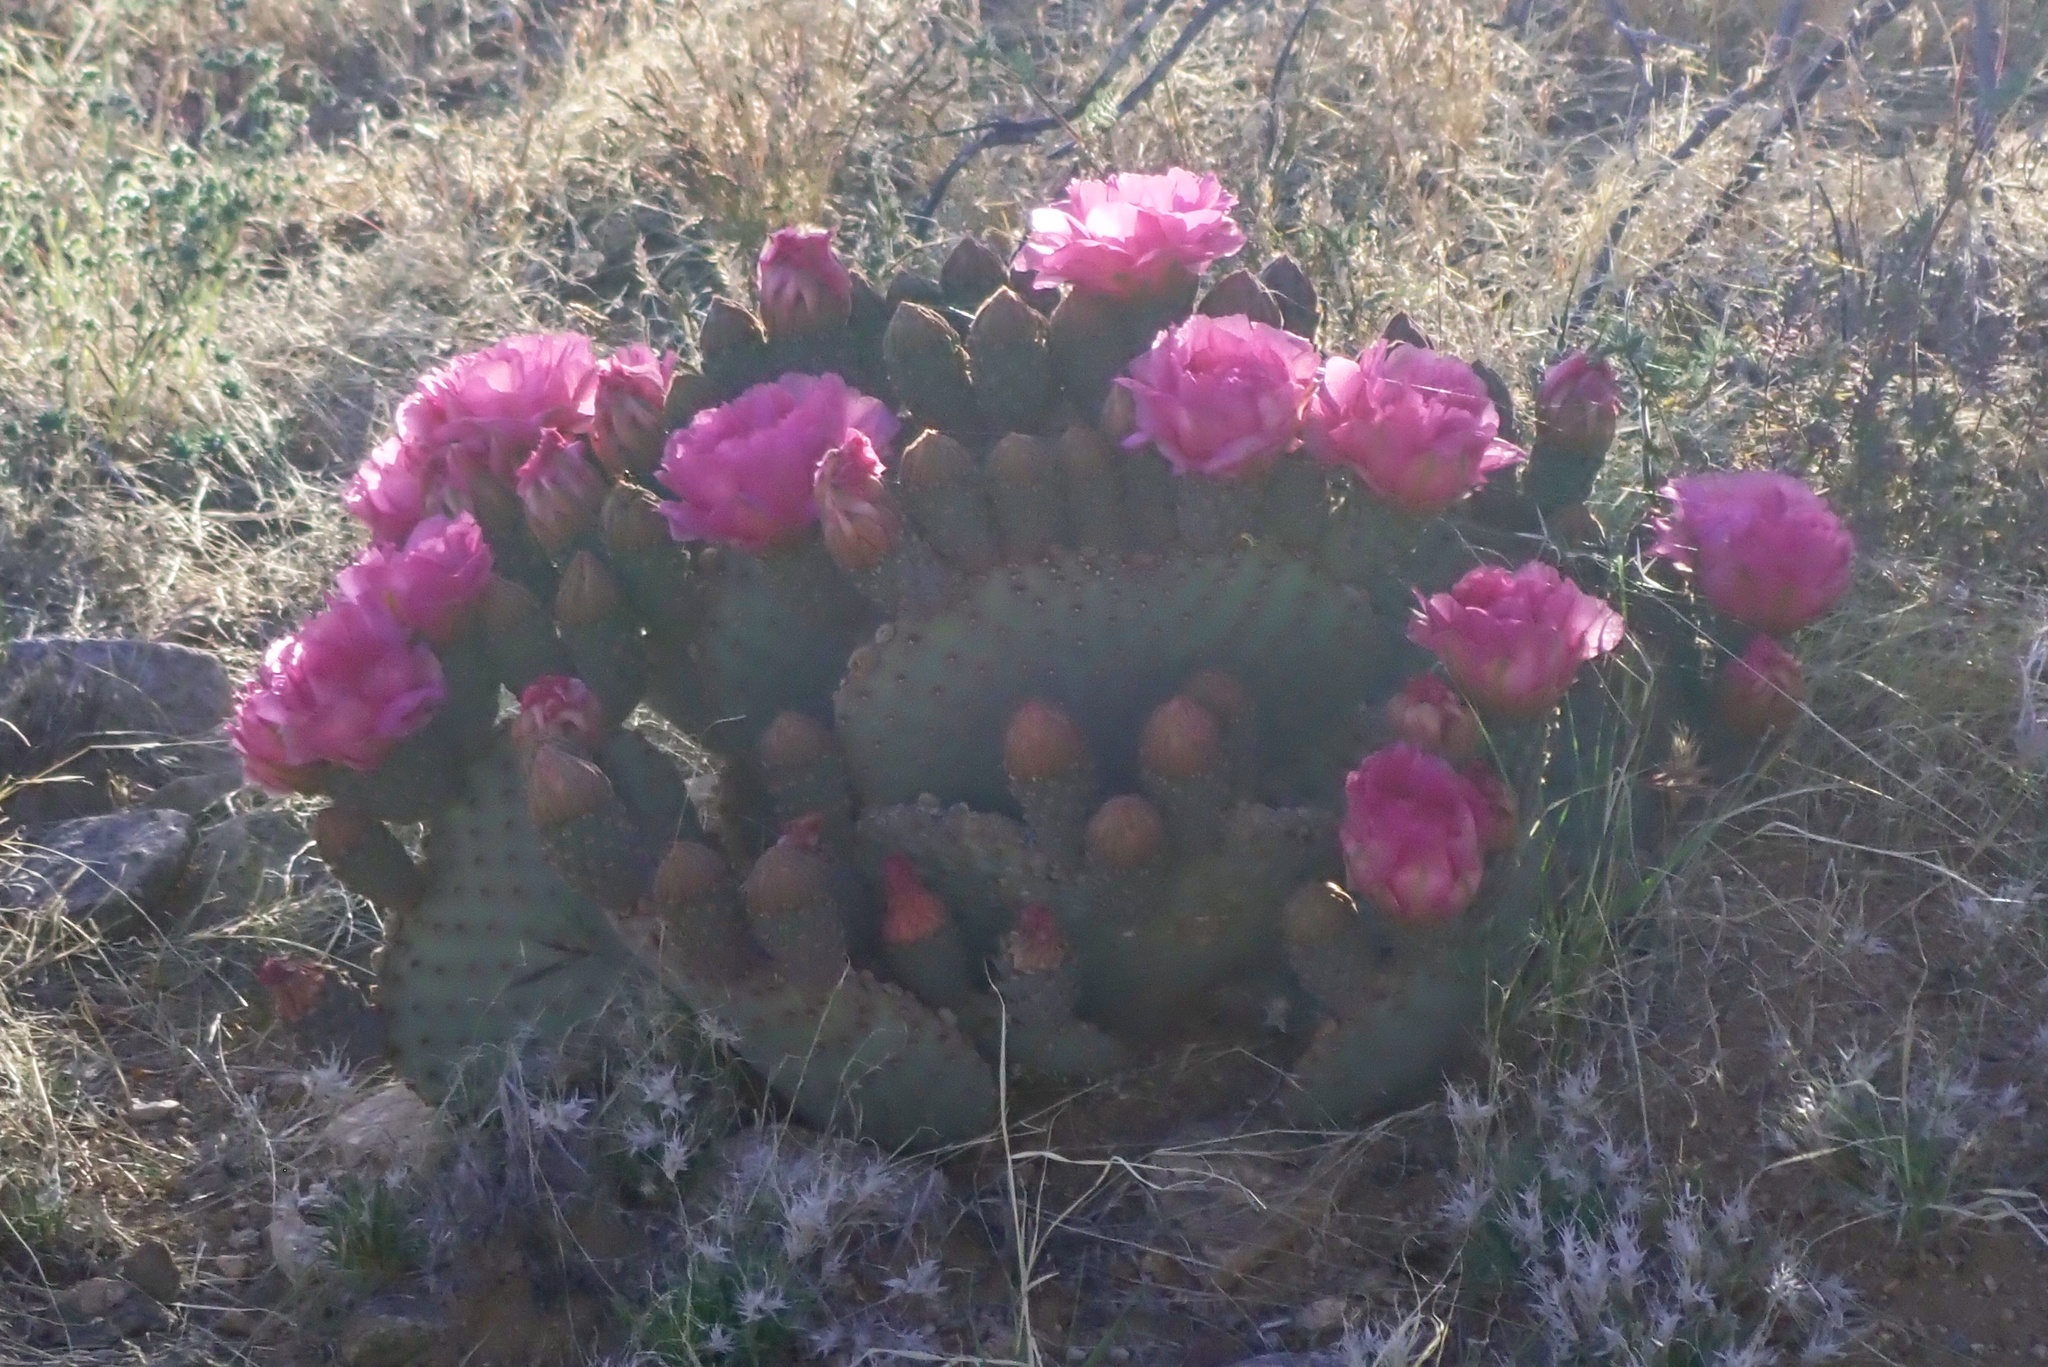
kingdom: Plantae
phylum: Tracheophyta
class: Magnoliopsida
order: Caryophyllales
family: Cactaceae
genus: Opuntia
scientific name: Opuntia basilaris
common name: Beavertail prickly-pear
